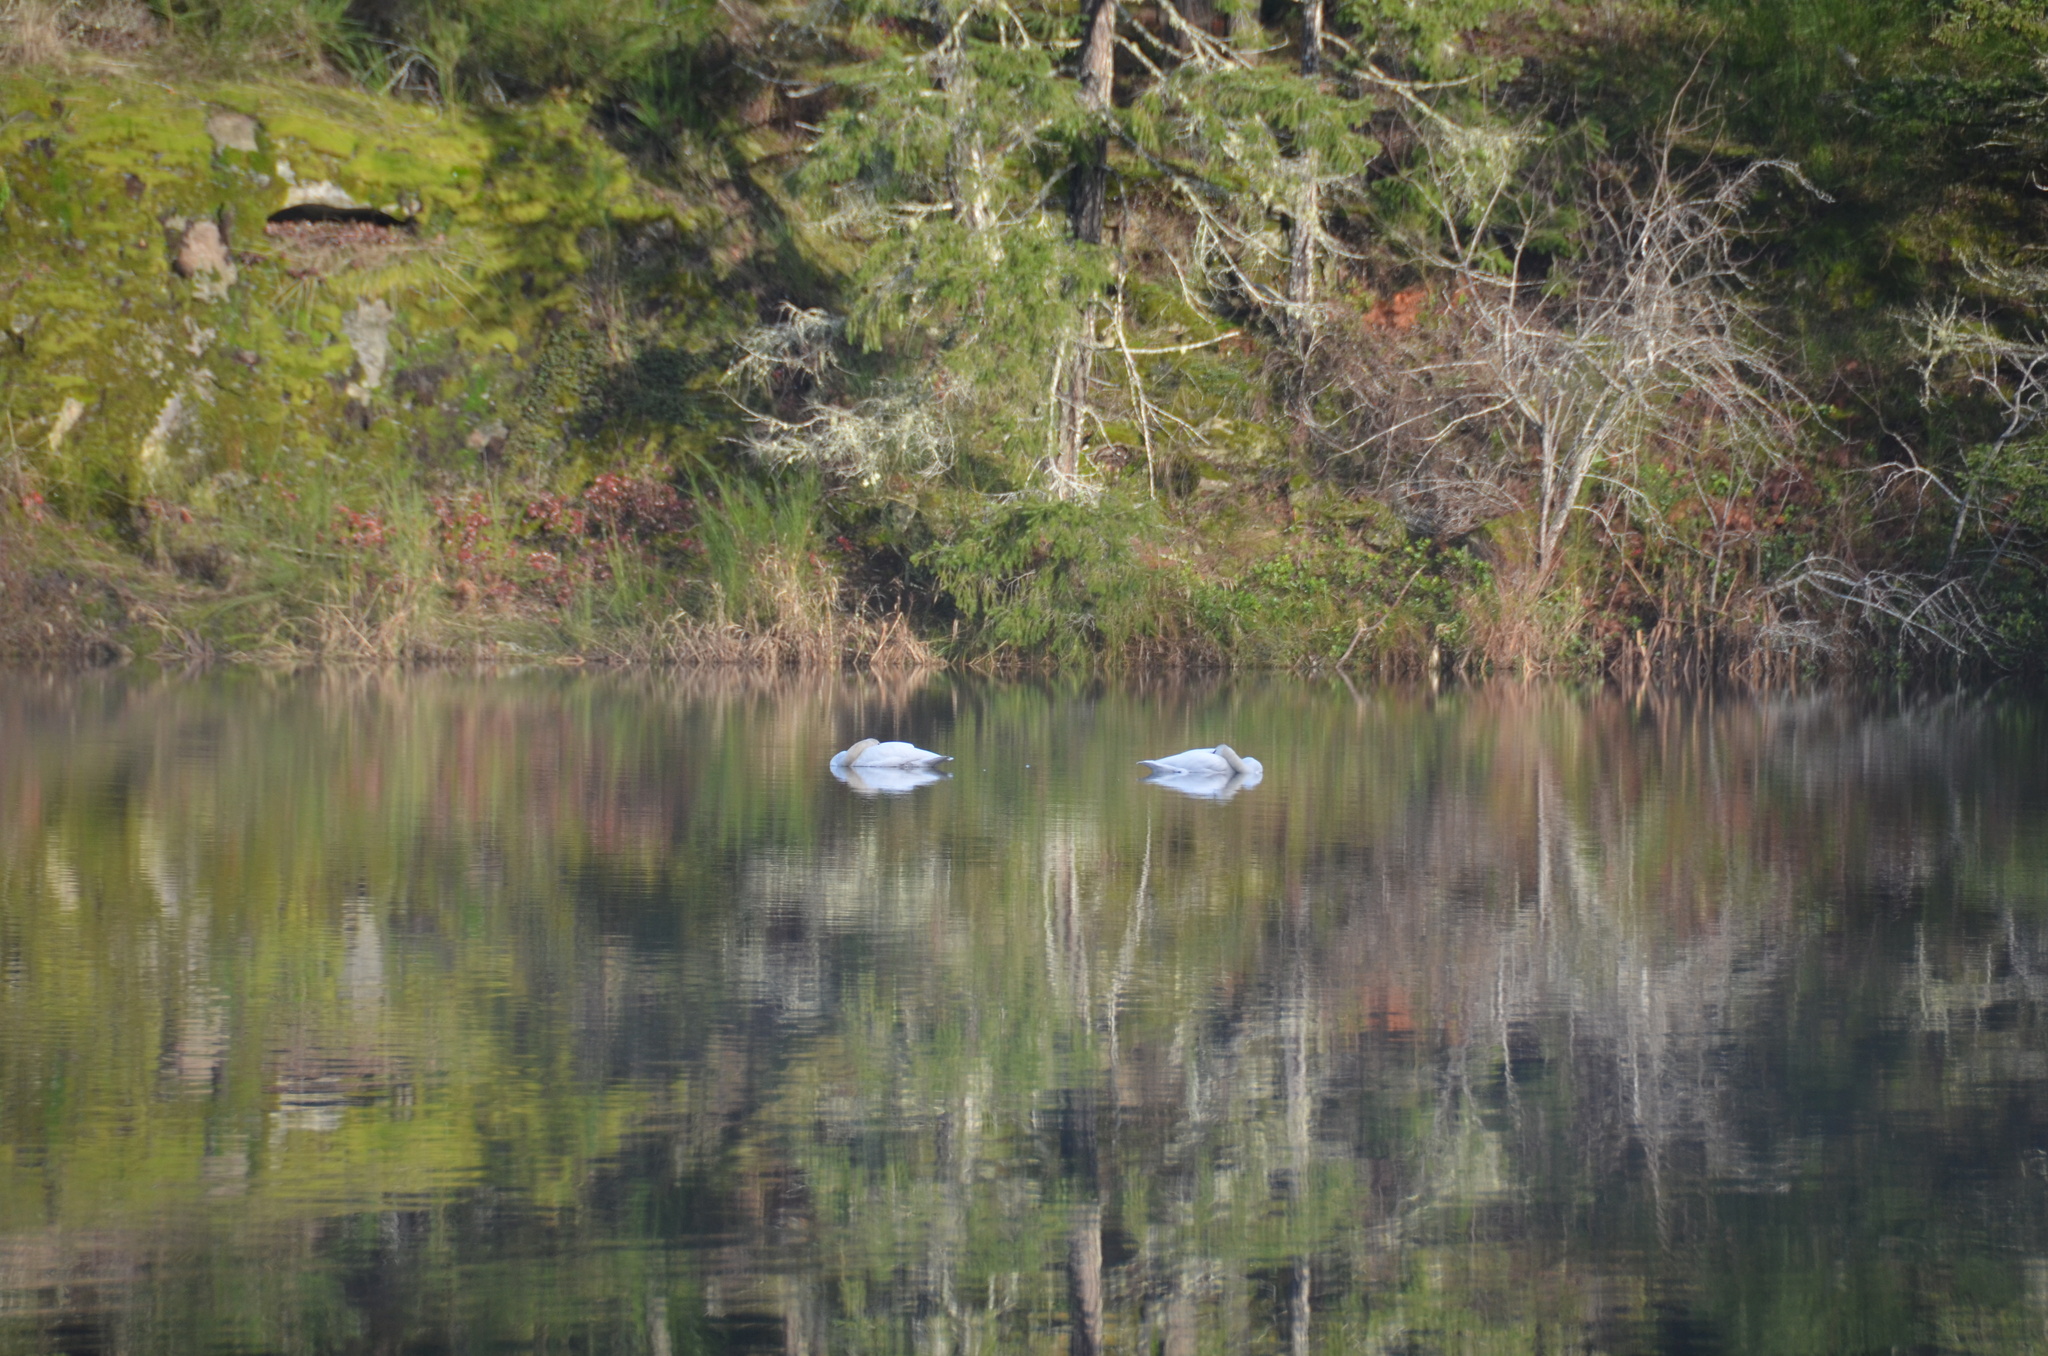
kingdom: Animalia
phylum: Chordata
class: Aves
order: Anseriformes
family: Anatidae
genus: Cygnus
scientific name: Cygnus buccinator
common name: Trumpeter swan
